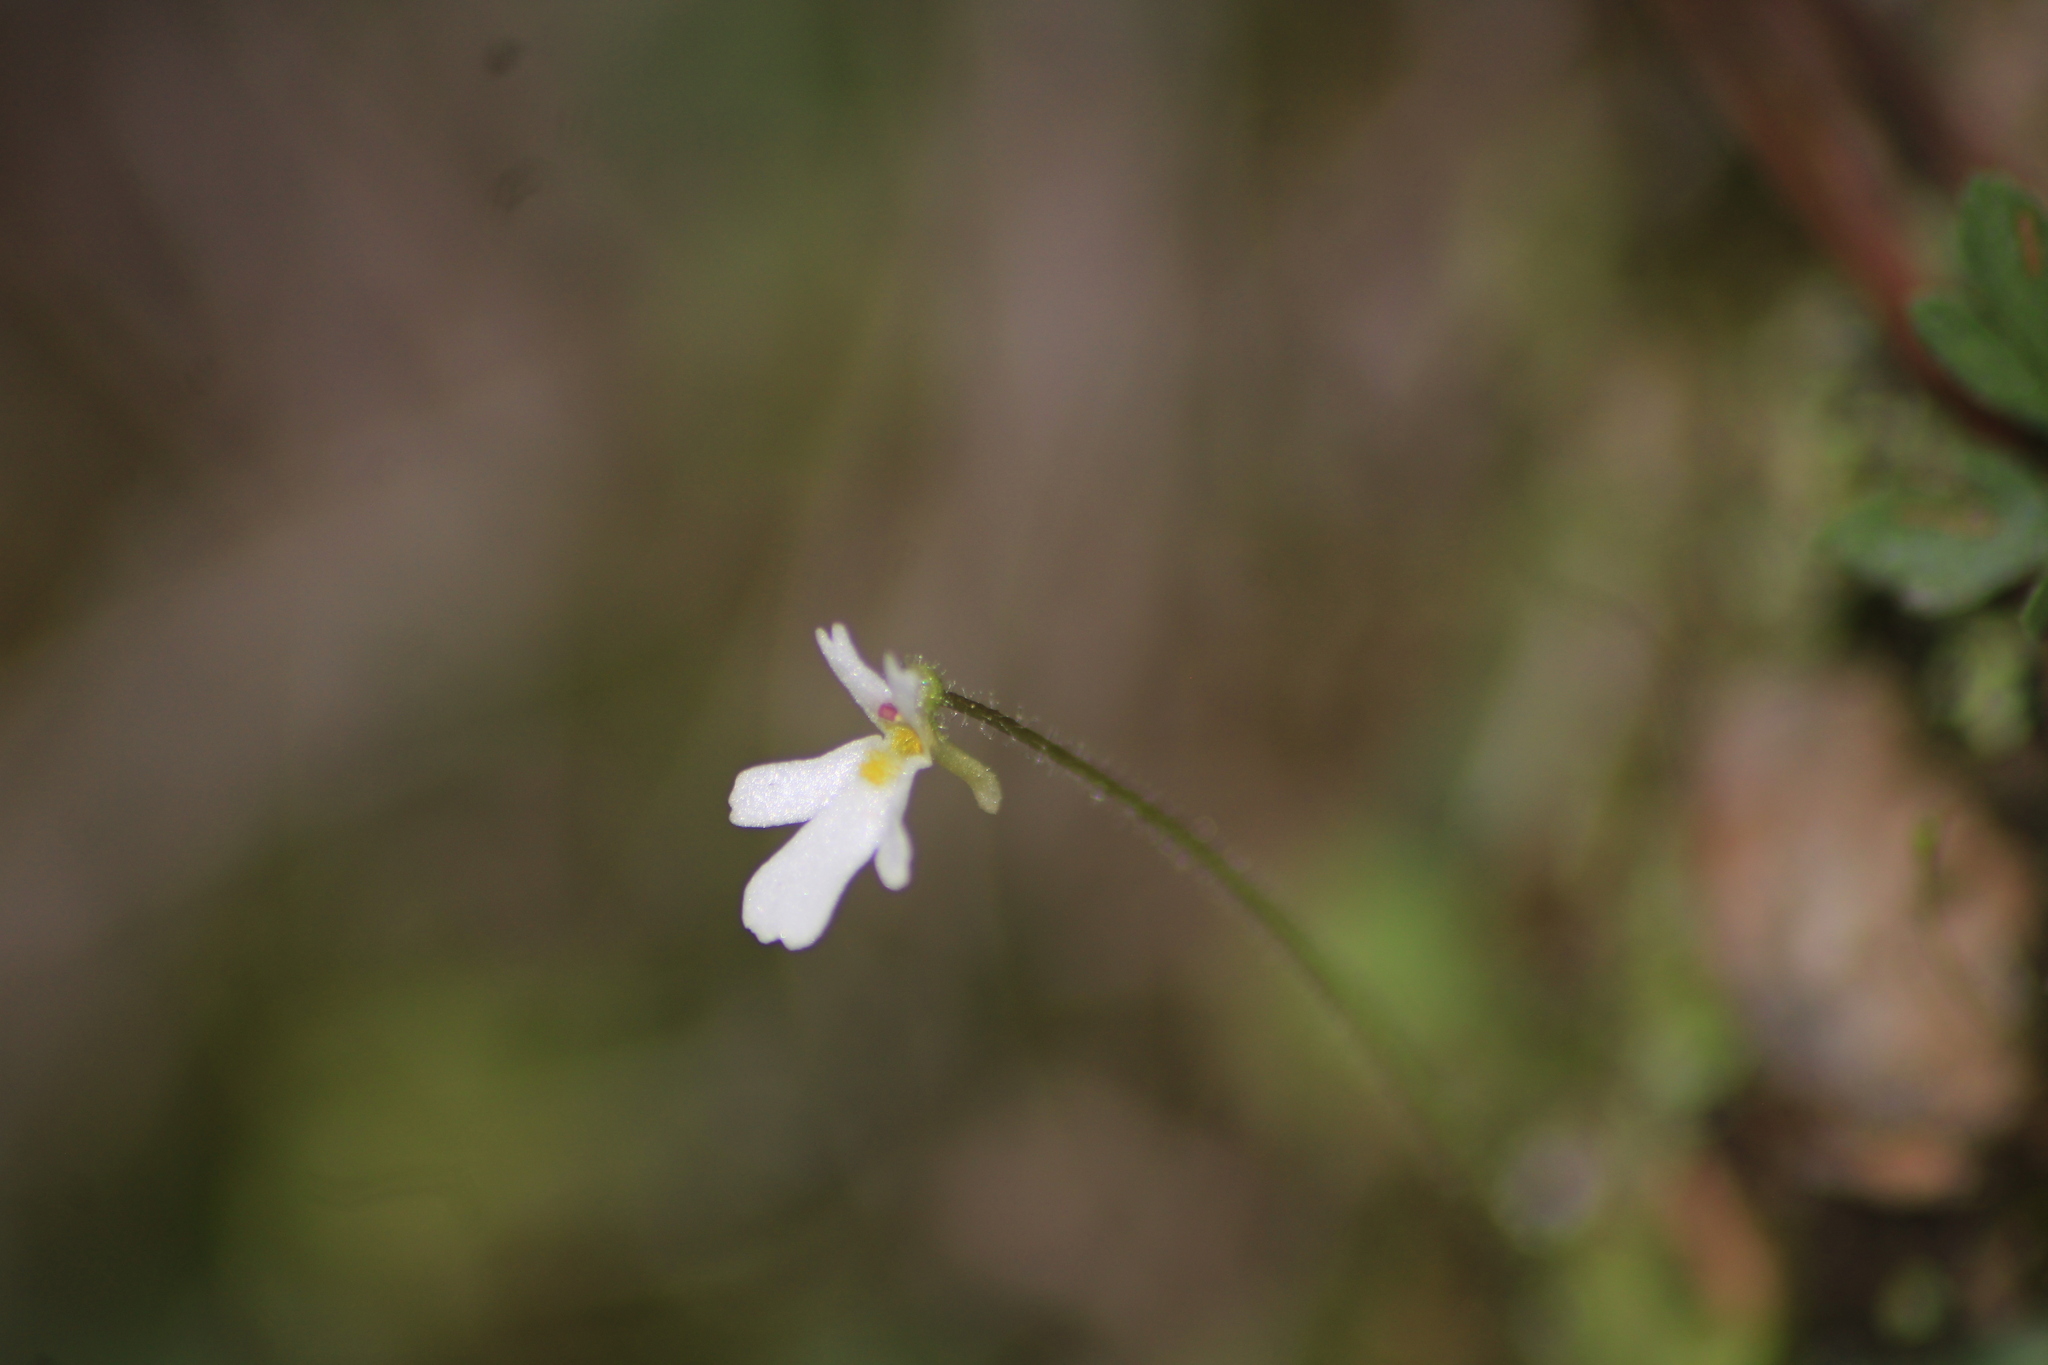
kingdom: Plantae
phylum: Tracheophyta
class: Magnoliopsida
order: Lamiales
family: Lentibulariaceae
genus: Pinguicula
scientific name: Pinguicula crenatiloba
